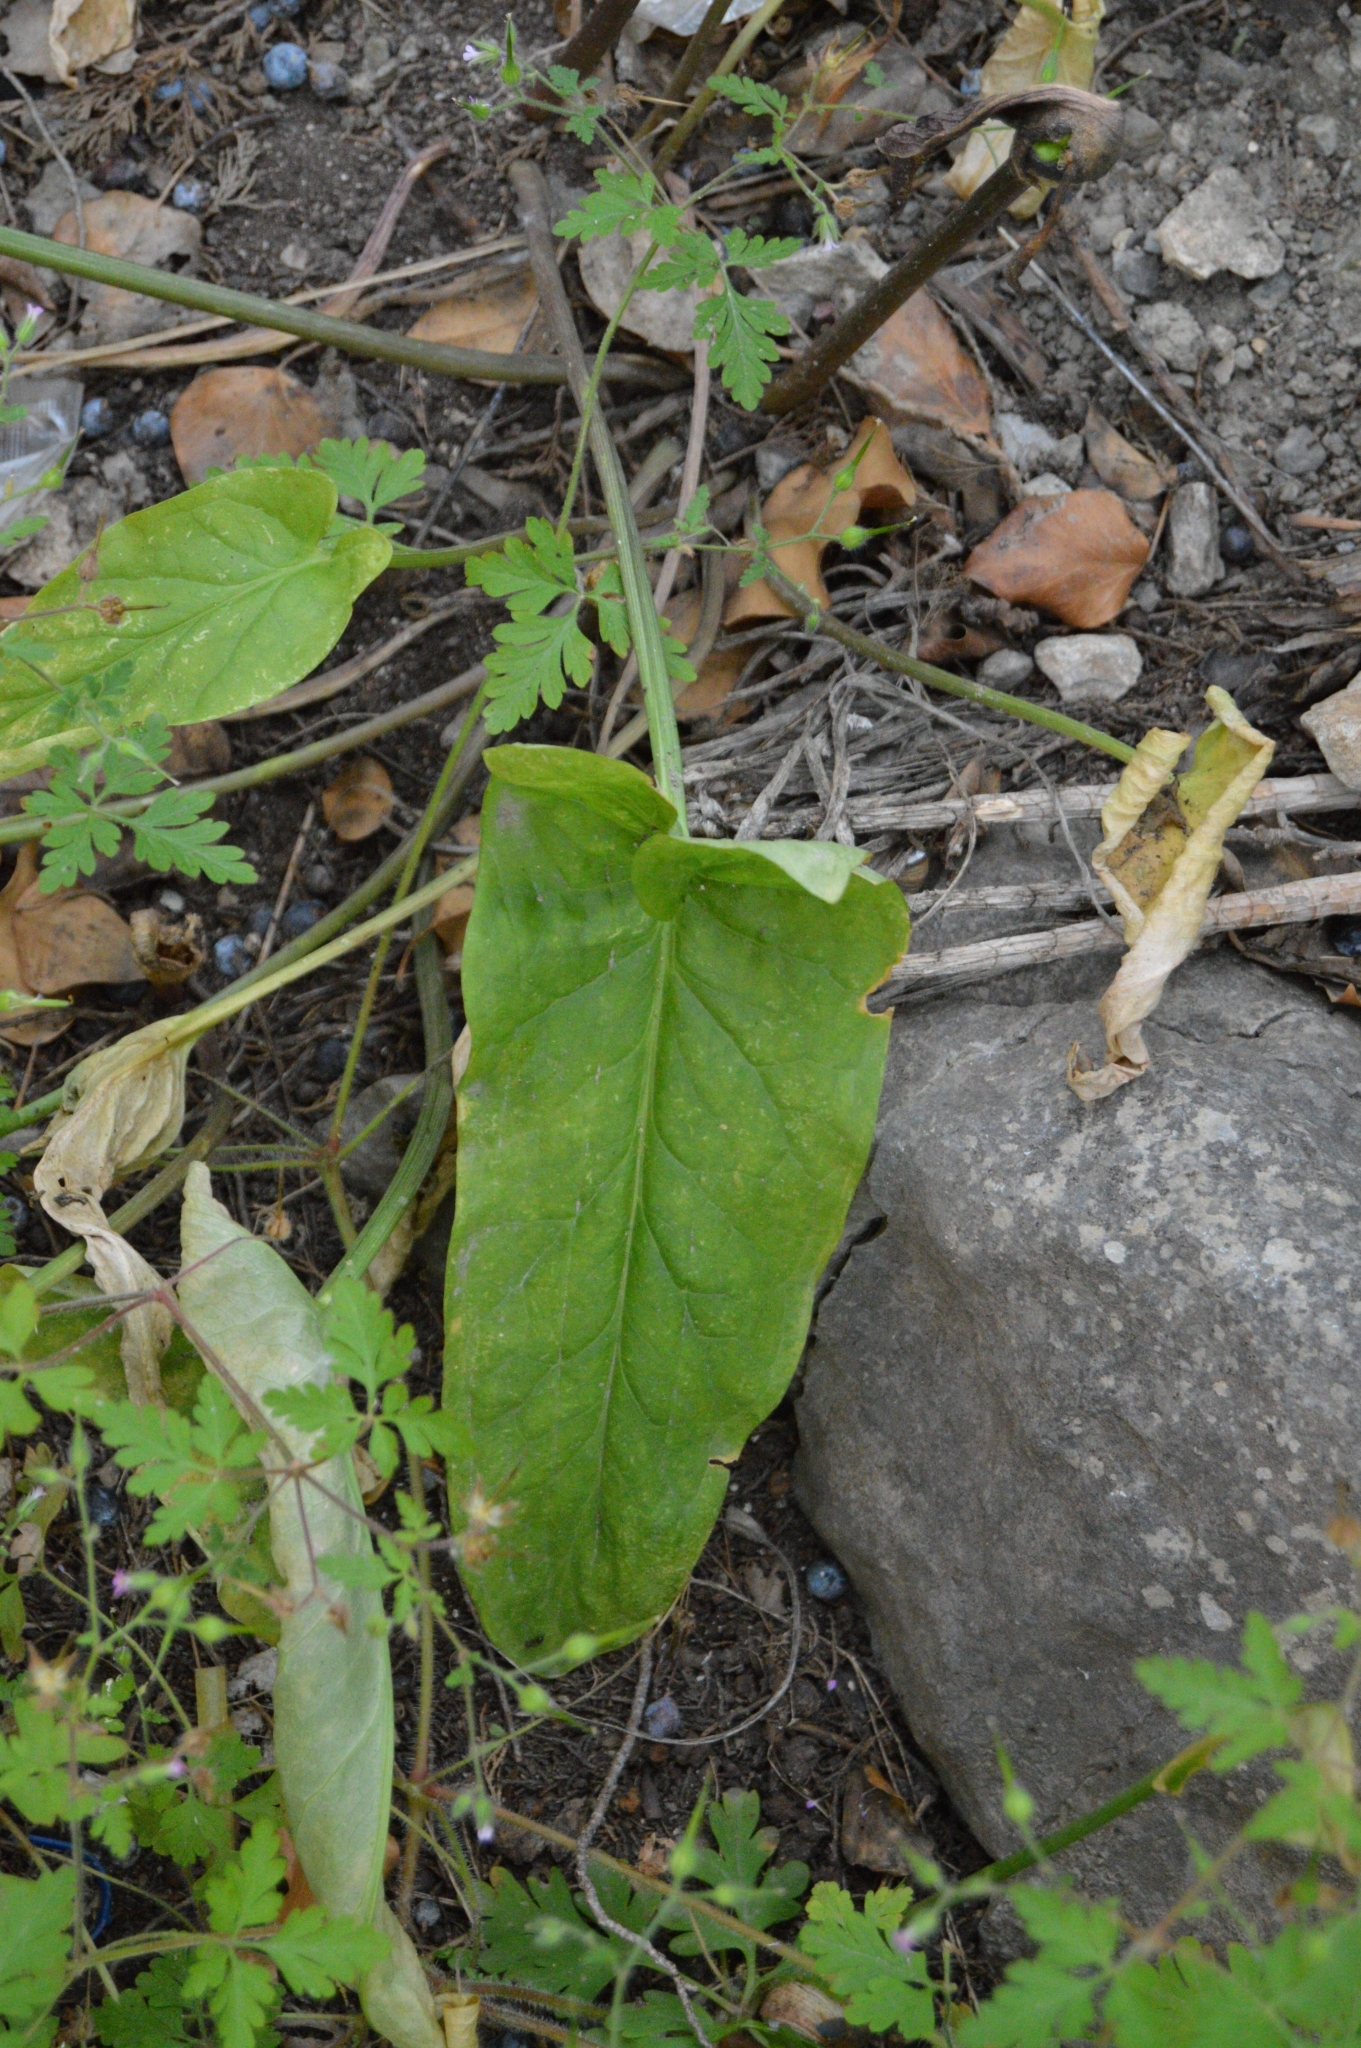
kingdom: Plantae
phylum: Tracheophyta
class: Liliopsida
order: Alismatales
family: Araceae
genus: Arum
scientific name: Arum orientale
